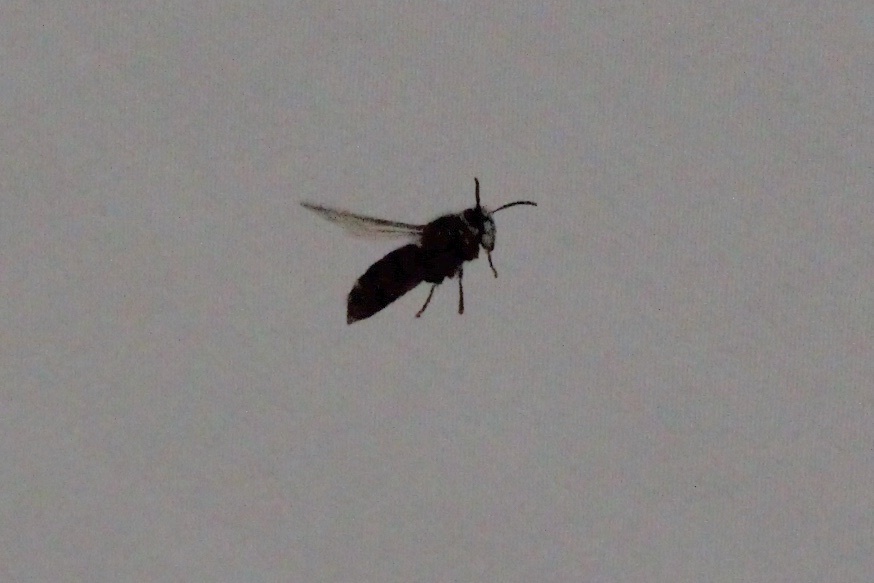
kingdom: Animalia
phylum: Arthropoda
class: Insecta
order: Hymenoptera
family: Vespidae
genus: Dolichovespula
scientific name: Dolichovespula maculata
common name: Bald-faced hornet
